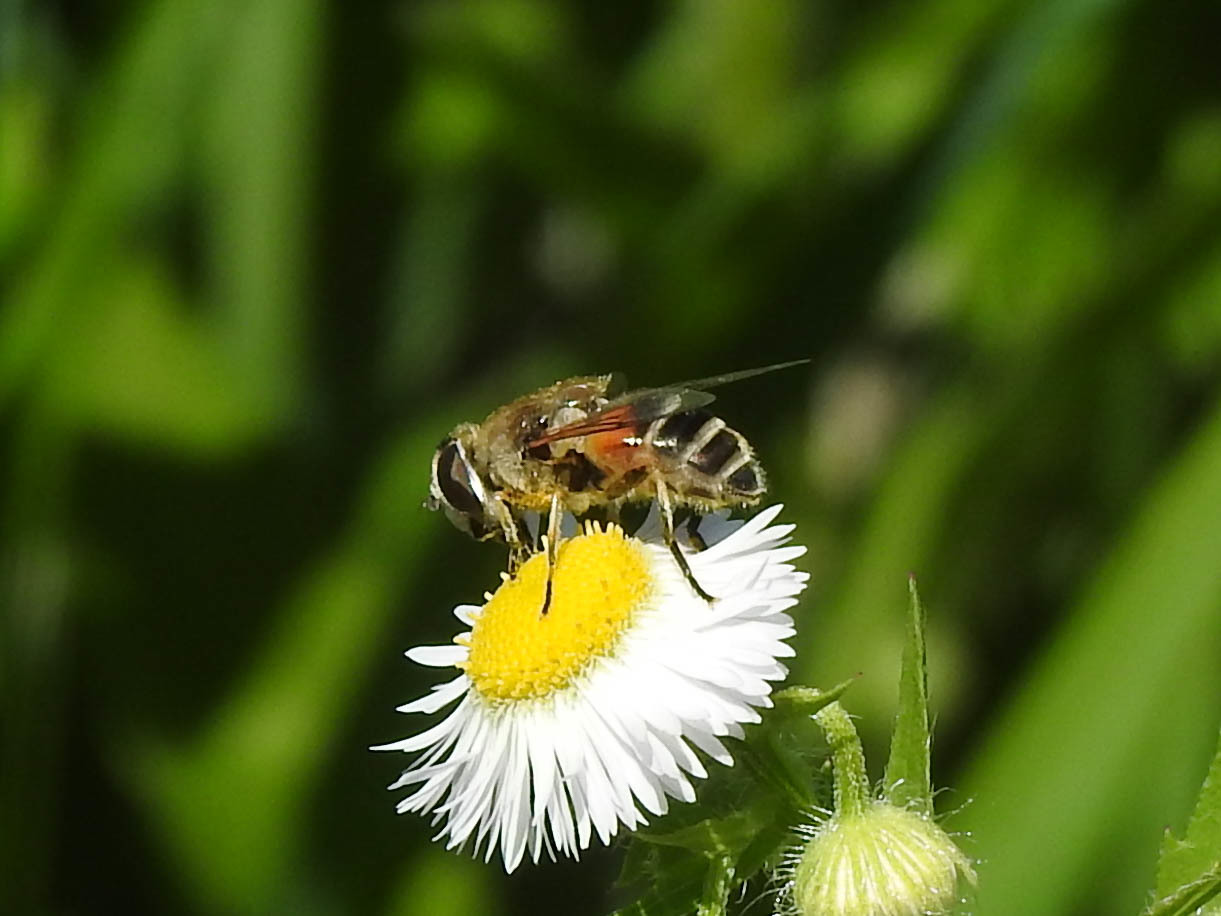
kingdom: Animalia
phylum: Arthropoda
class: Insecta
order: Diptera
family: Syrphidae
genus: Eristalis
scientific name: Eristalis arbustorum
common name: Hover fly
